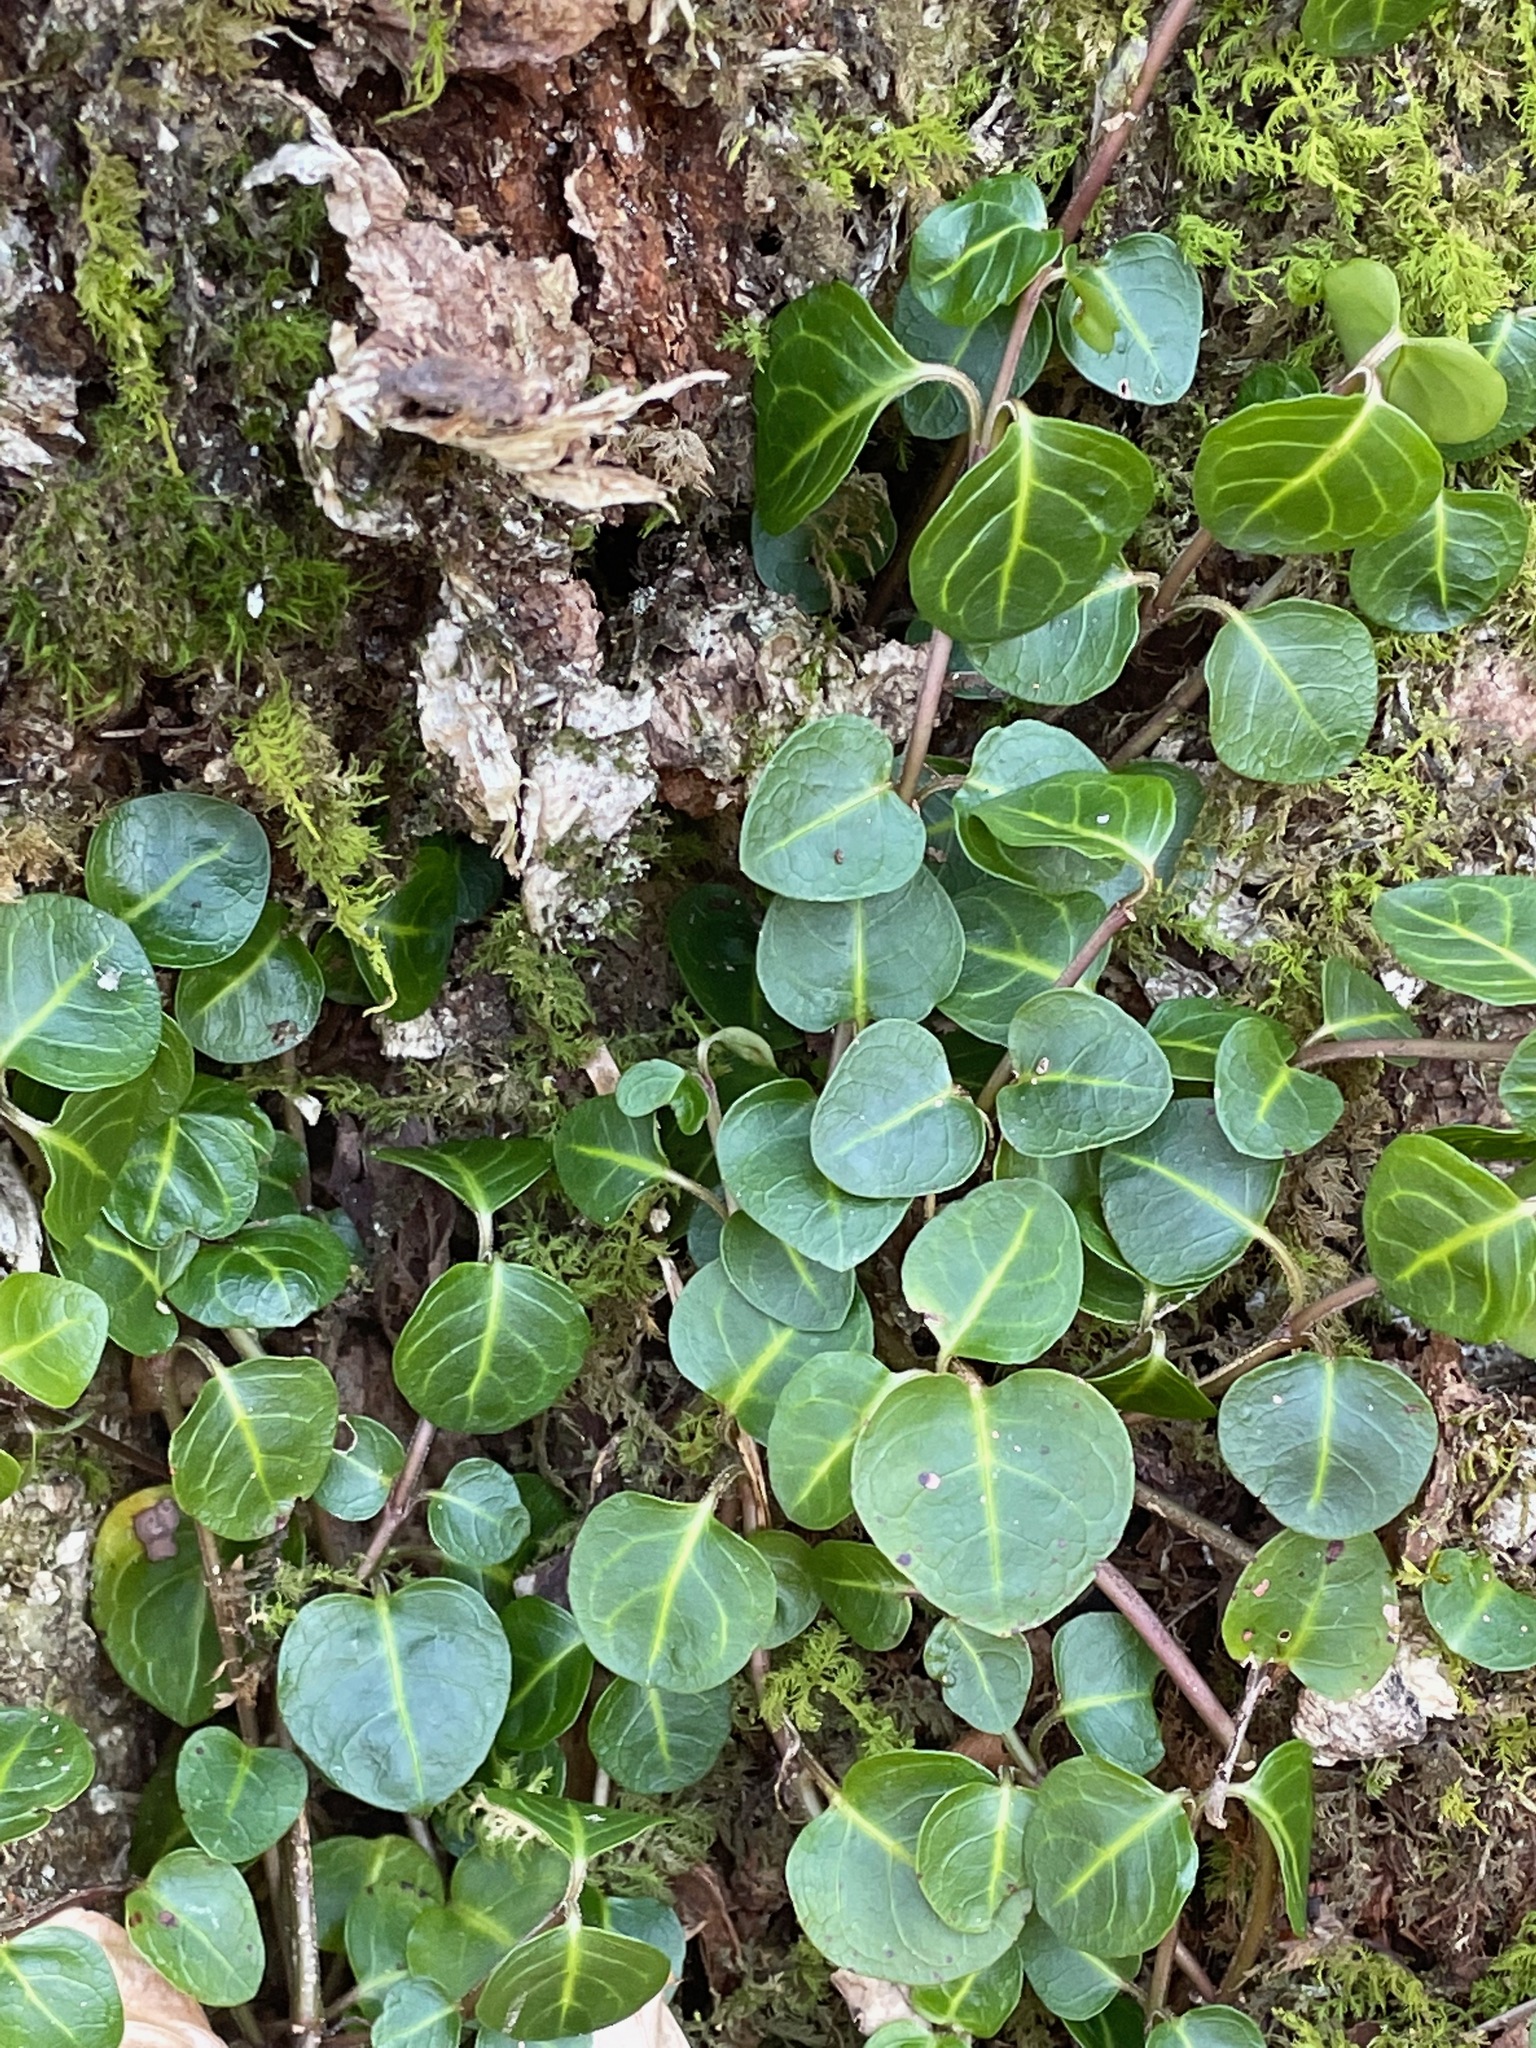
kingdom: Plantae
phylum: Tracheophyta
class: Magnoliopsida
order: Gentianales
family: Rubiaceae
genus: Mitchella
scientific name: Mitchella repens
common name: Partridge-berry
